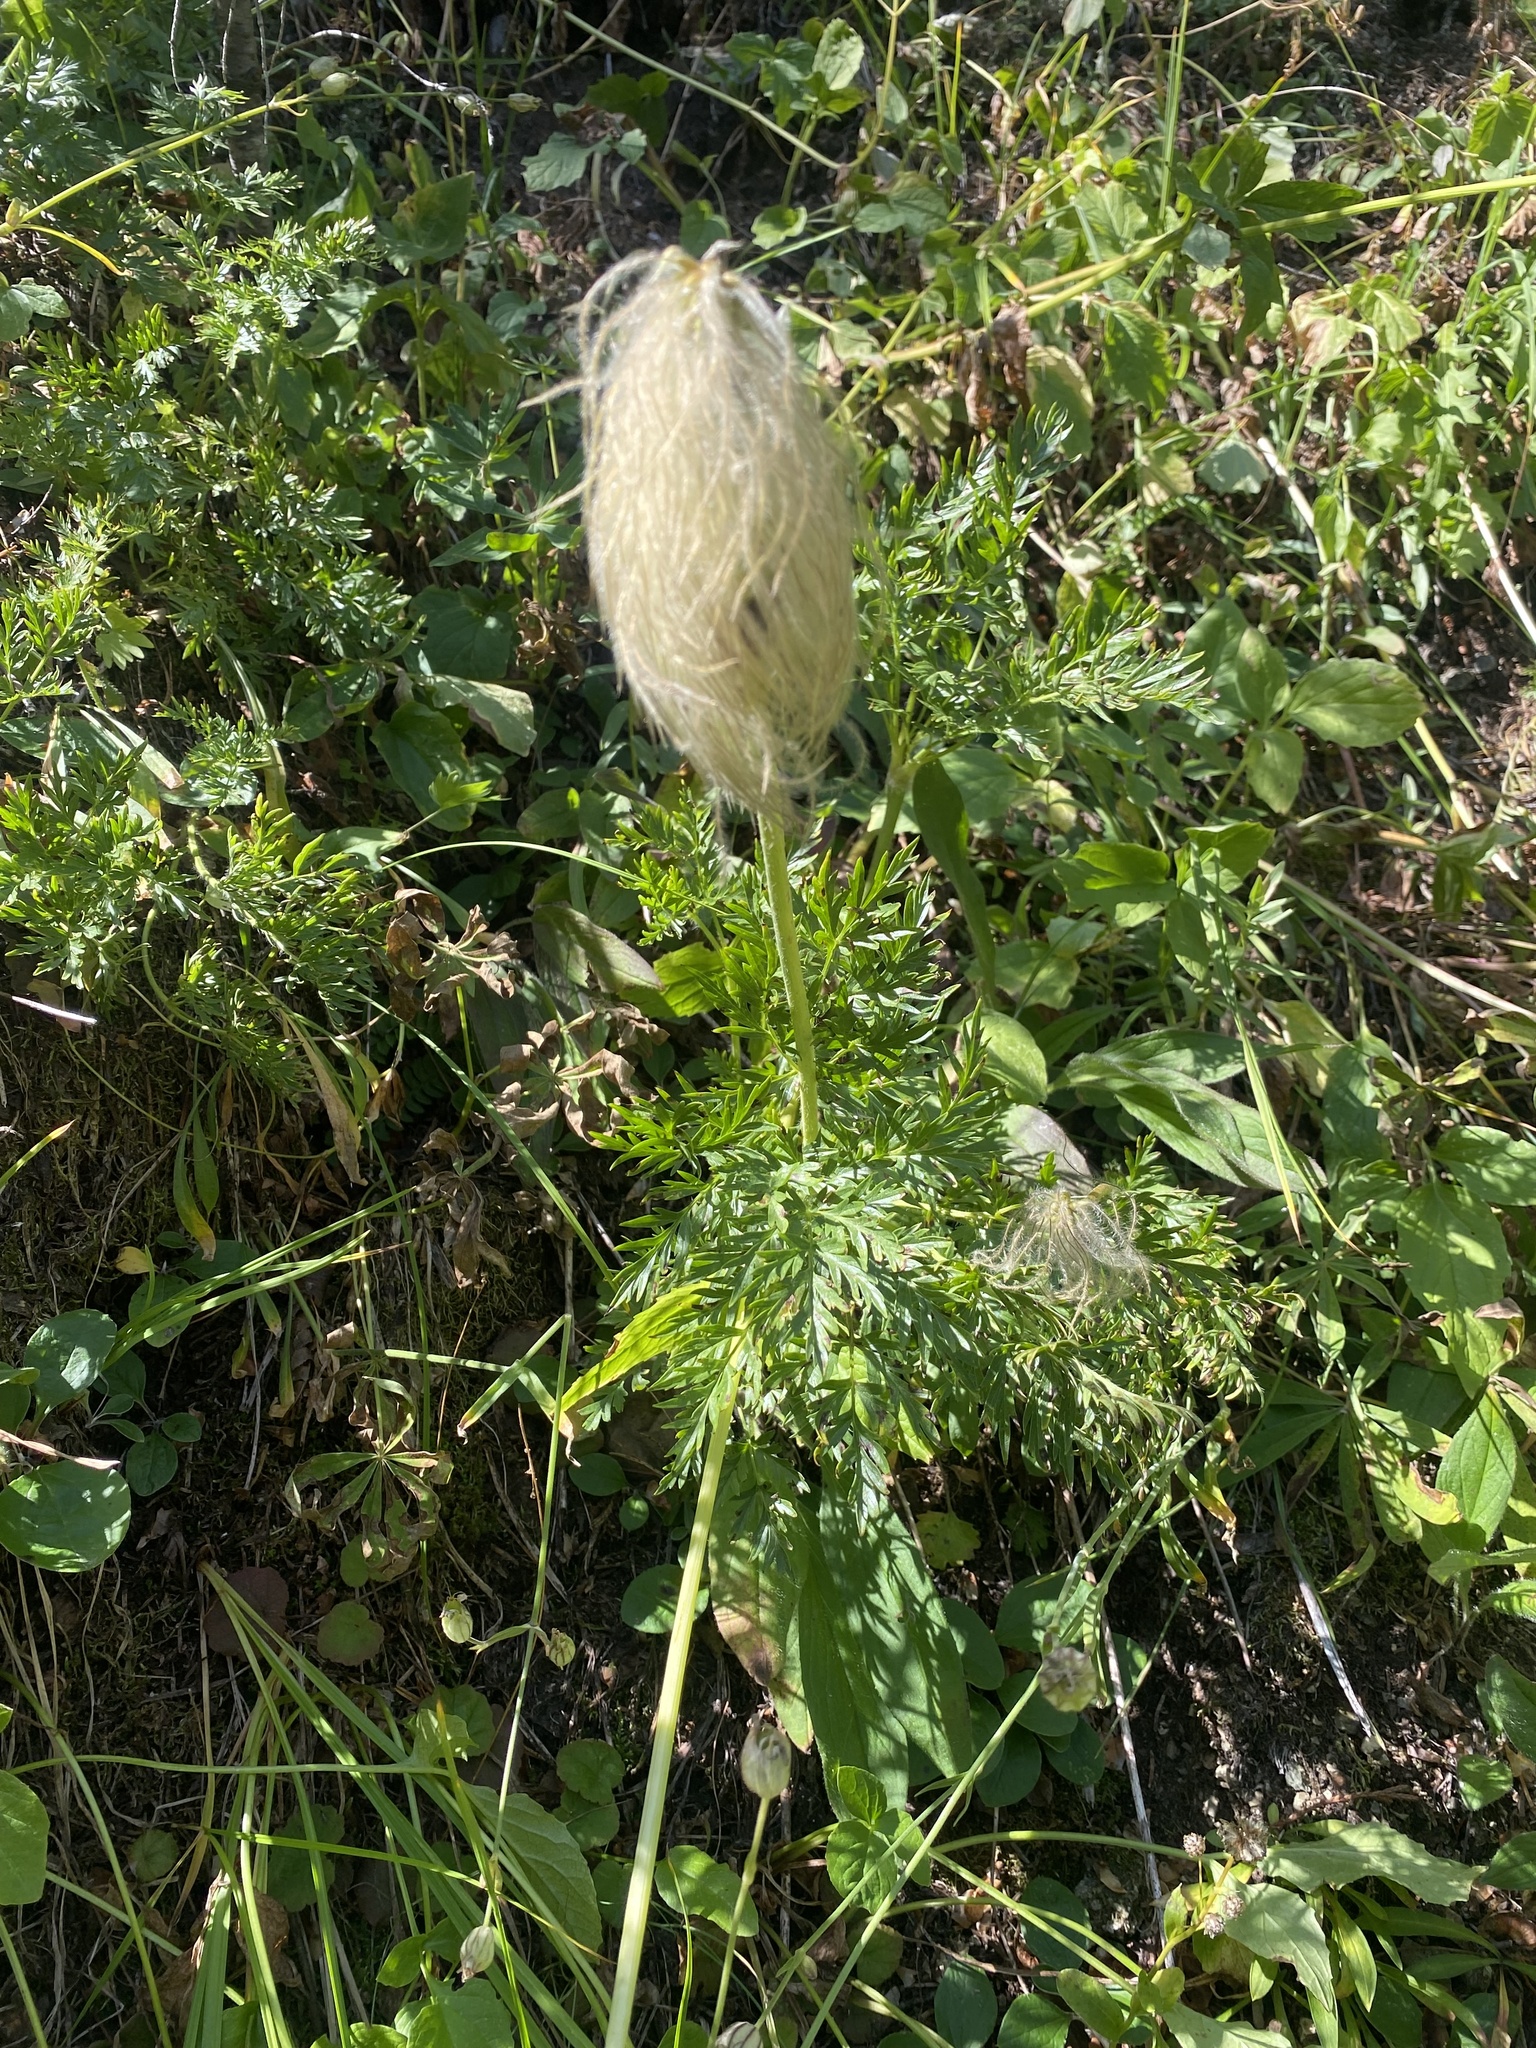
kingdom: Plantae
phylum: Tracheophyta
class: Magnoliopsida
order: Ranunculales
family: Ranunculaceae
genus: Pulsatilla
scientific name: Pulsatilla occidentalis
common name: Mountain pasqueflower
